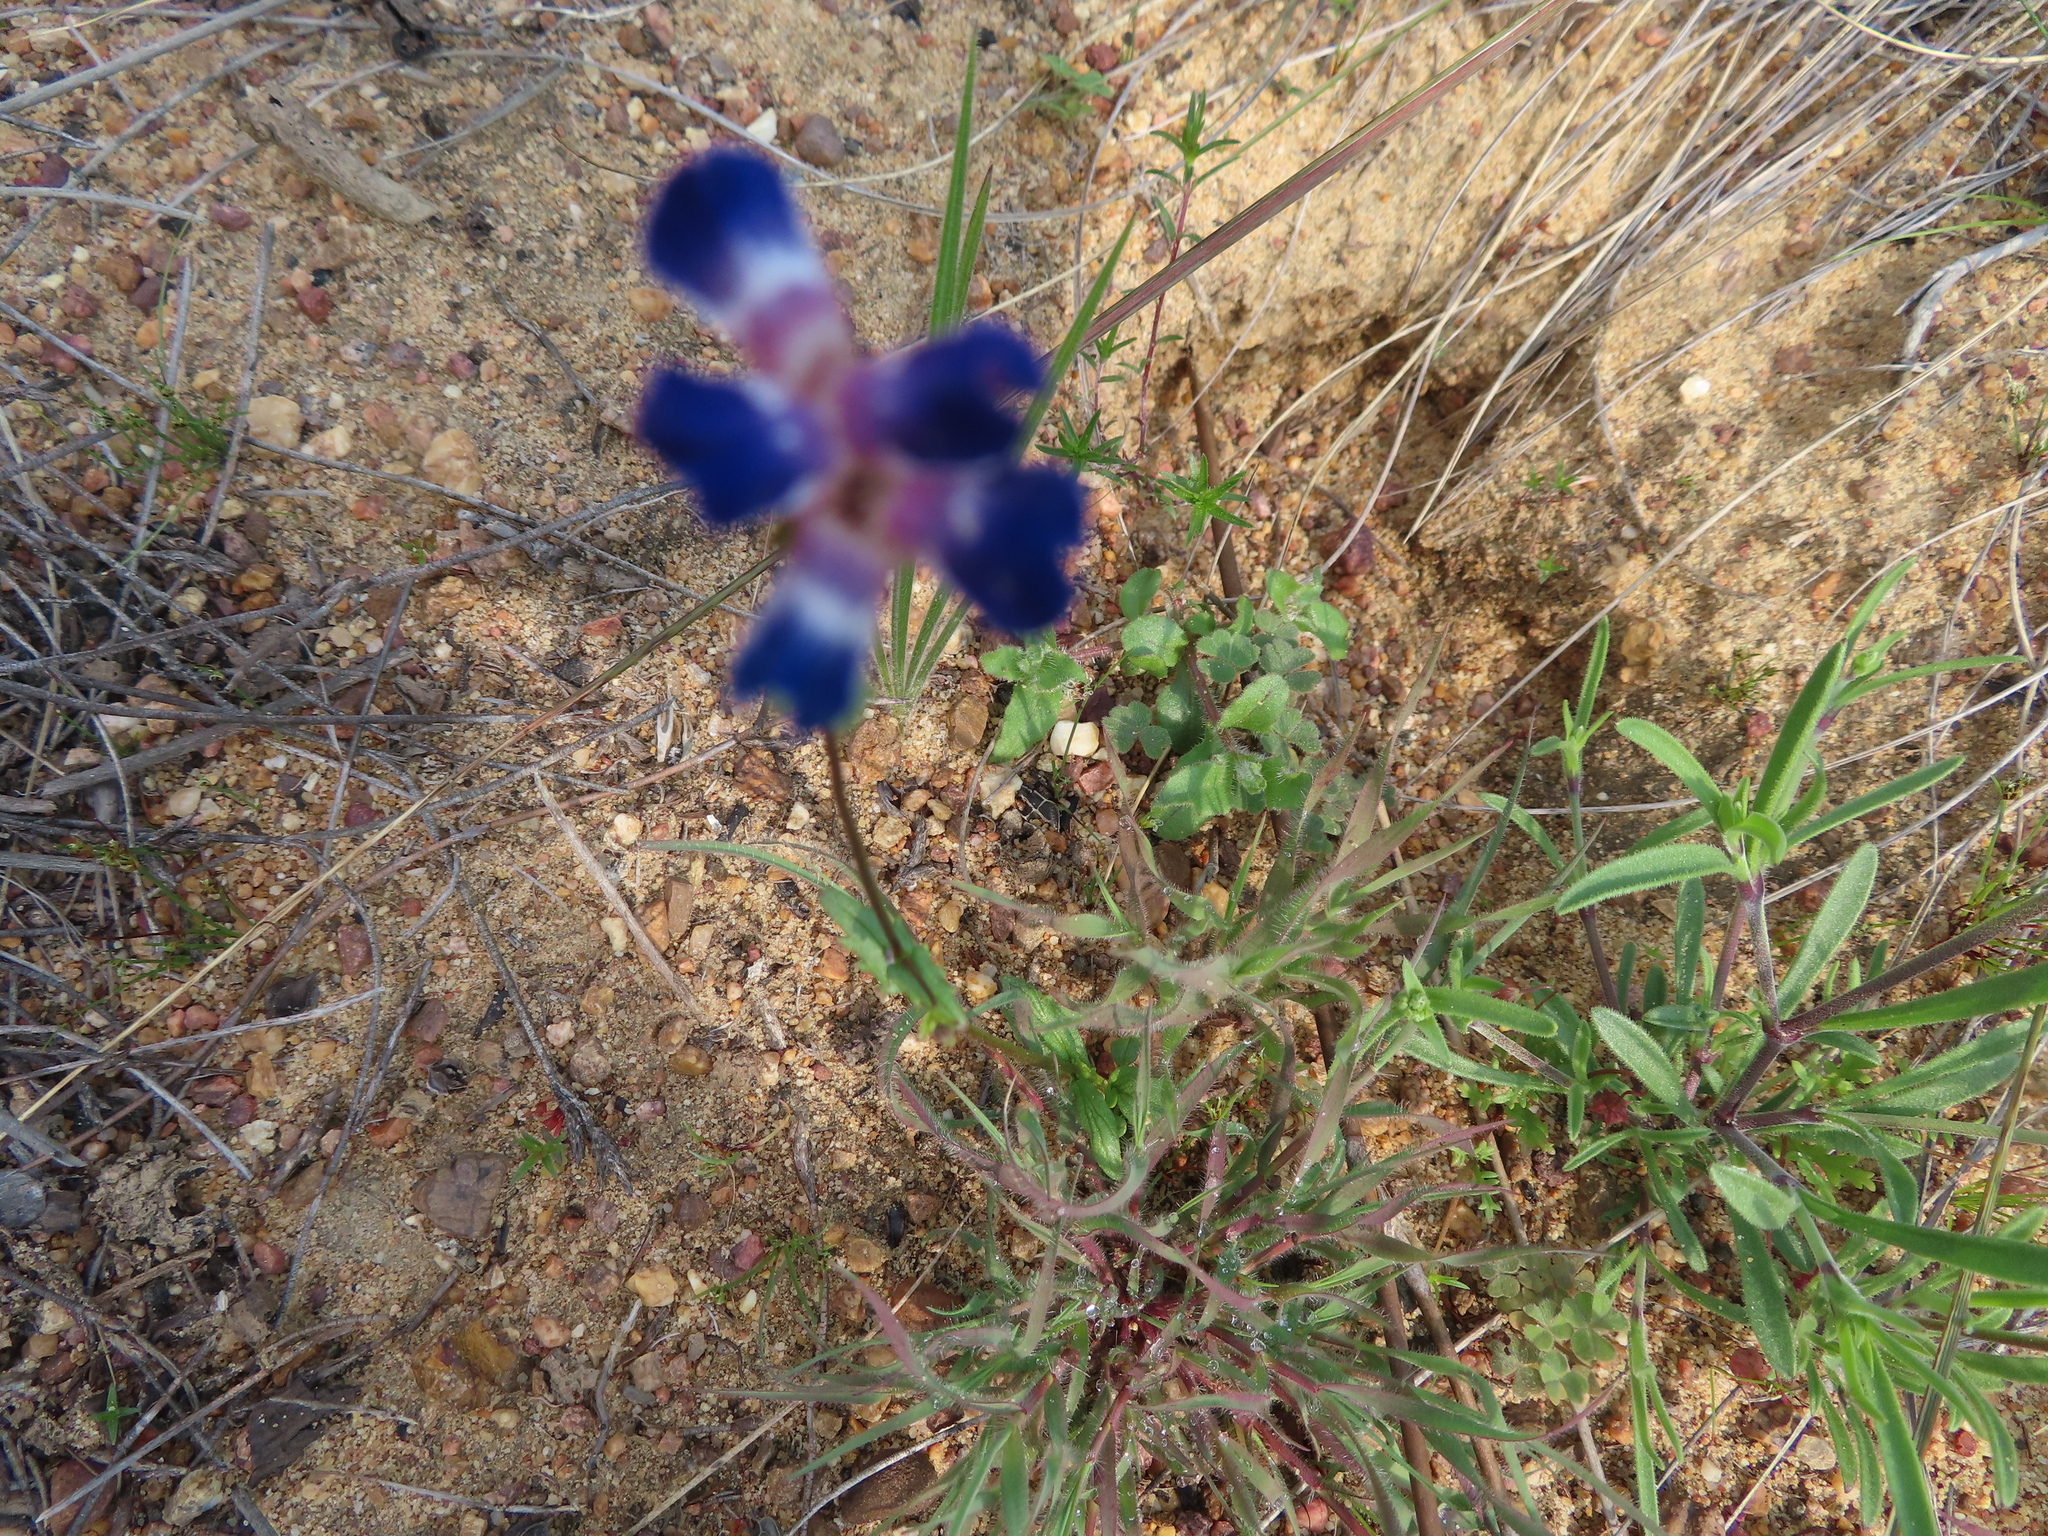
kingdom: Plantae
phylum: Tracheophyta
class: Magnoliopsida
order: Lamiales
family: Scrophulariaceae
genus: Nemesia
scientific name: Nemesia barbata
